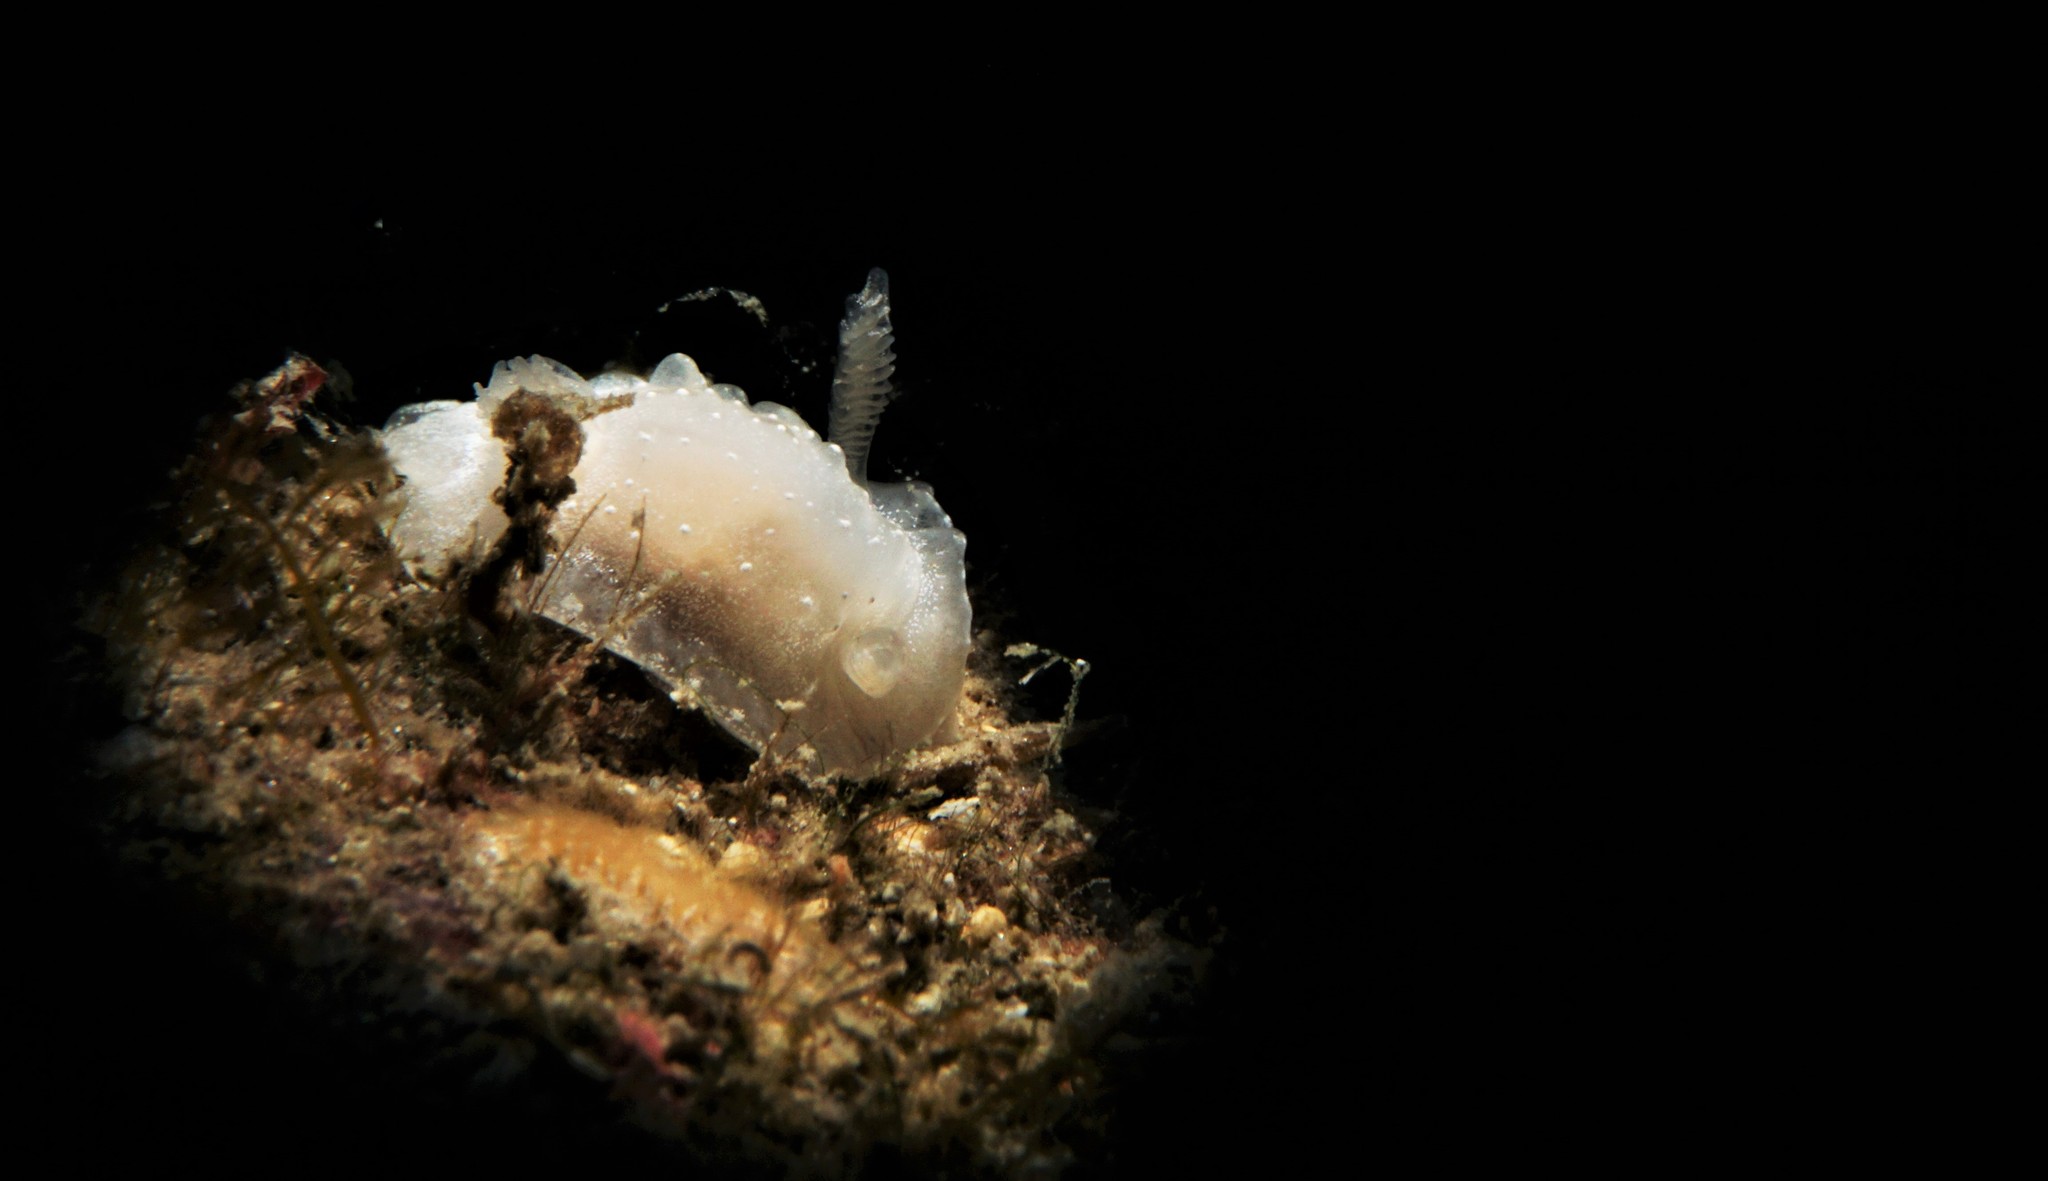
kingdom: Animalia
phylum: Mollusca
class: Gastropoda
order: Nudibranchia
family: Goniodorididae
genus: Okenia
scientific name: Okenia
